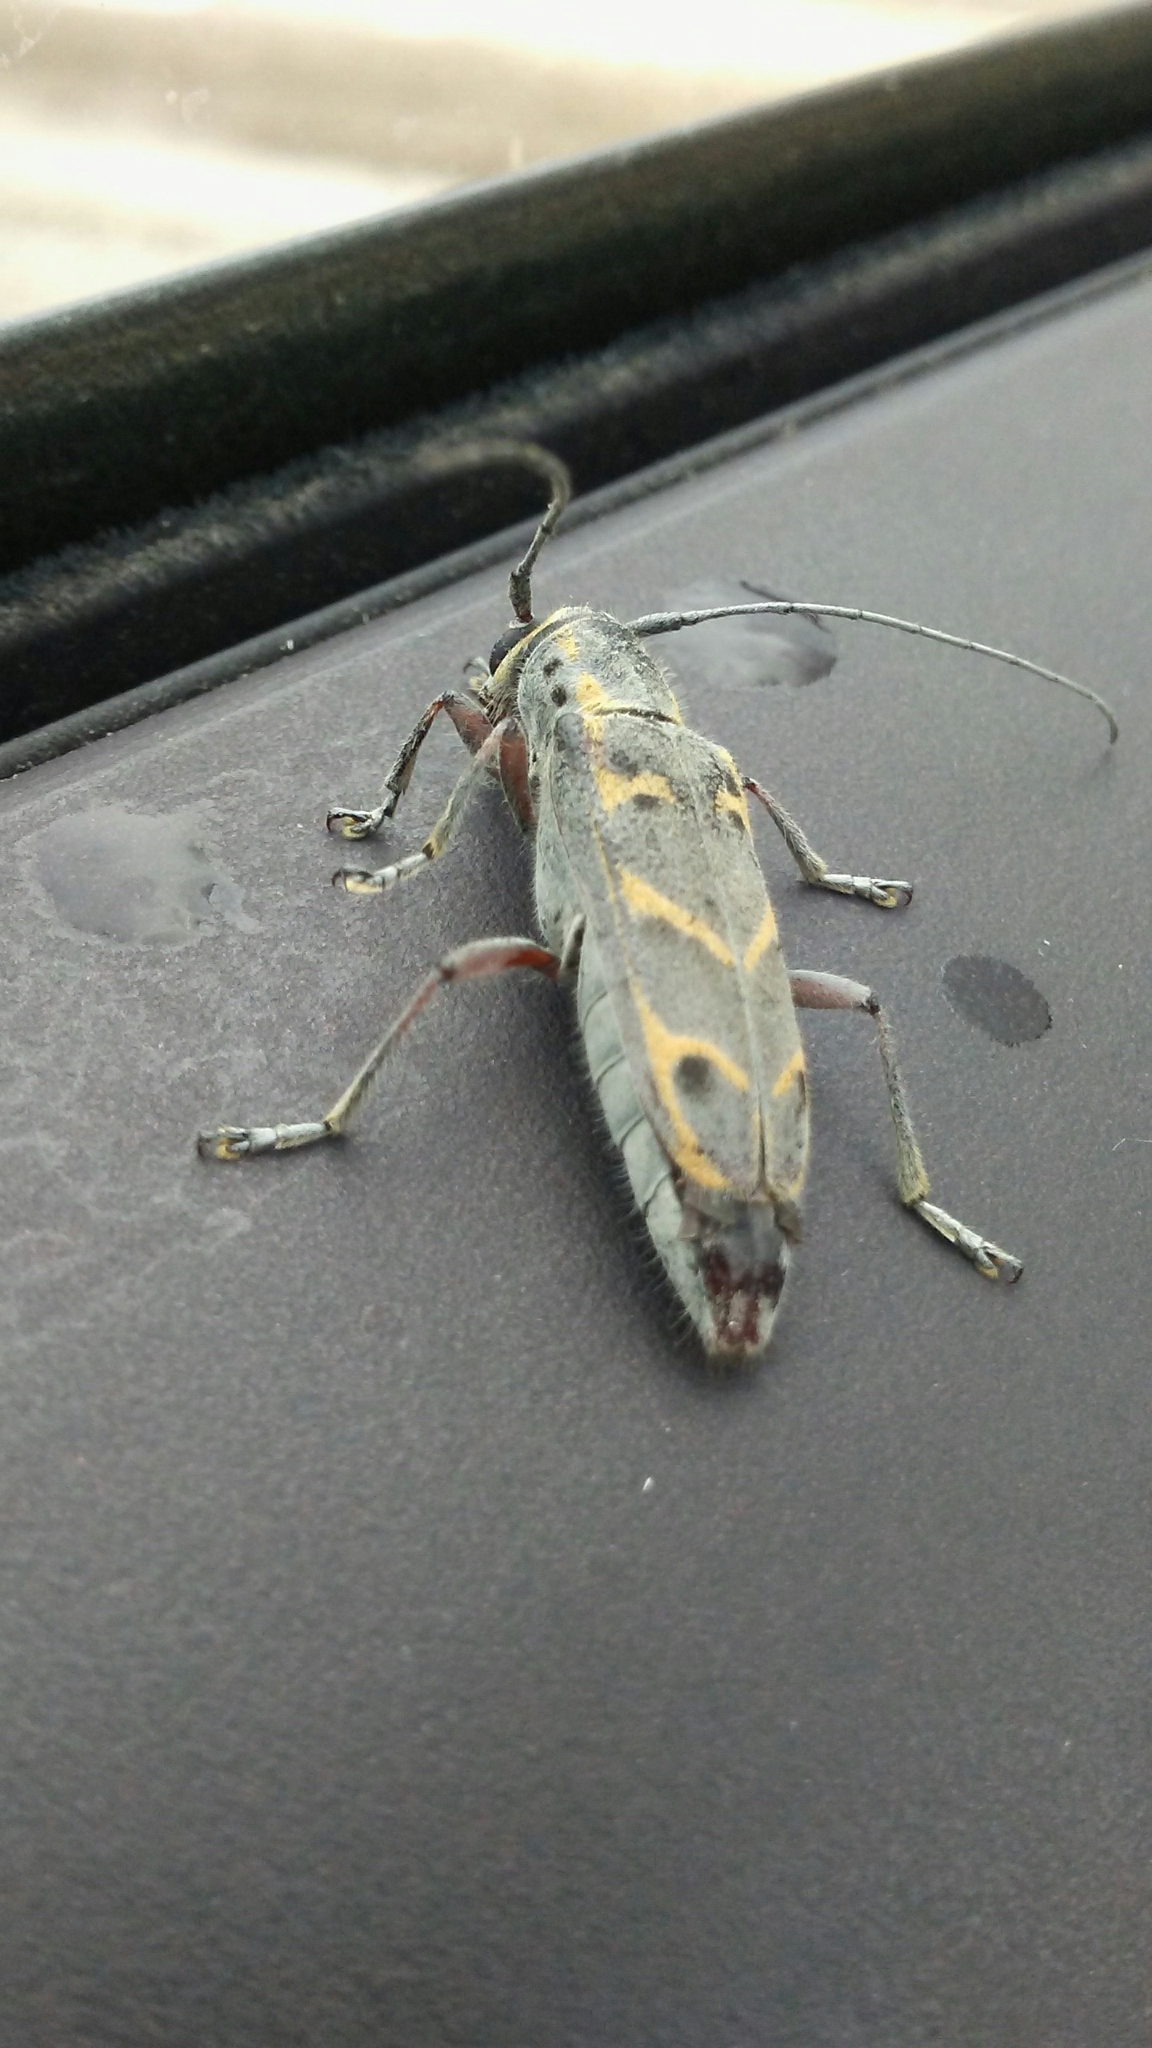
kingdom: Animalia
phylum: Arthropoda
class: Insecta
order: Coleoptera
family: Cerambycidae
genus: Saperda
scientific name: Saperda tridentata
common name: Elm borer
